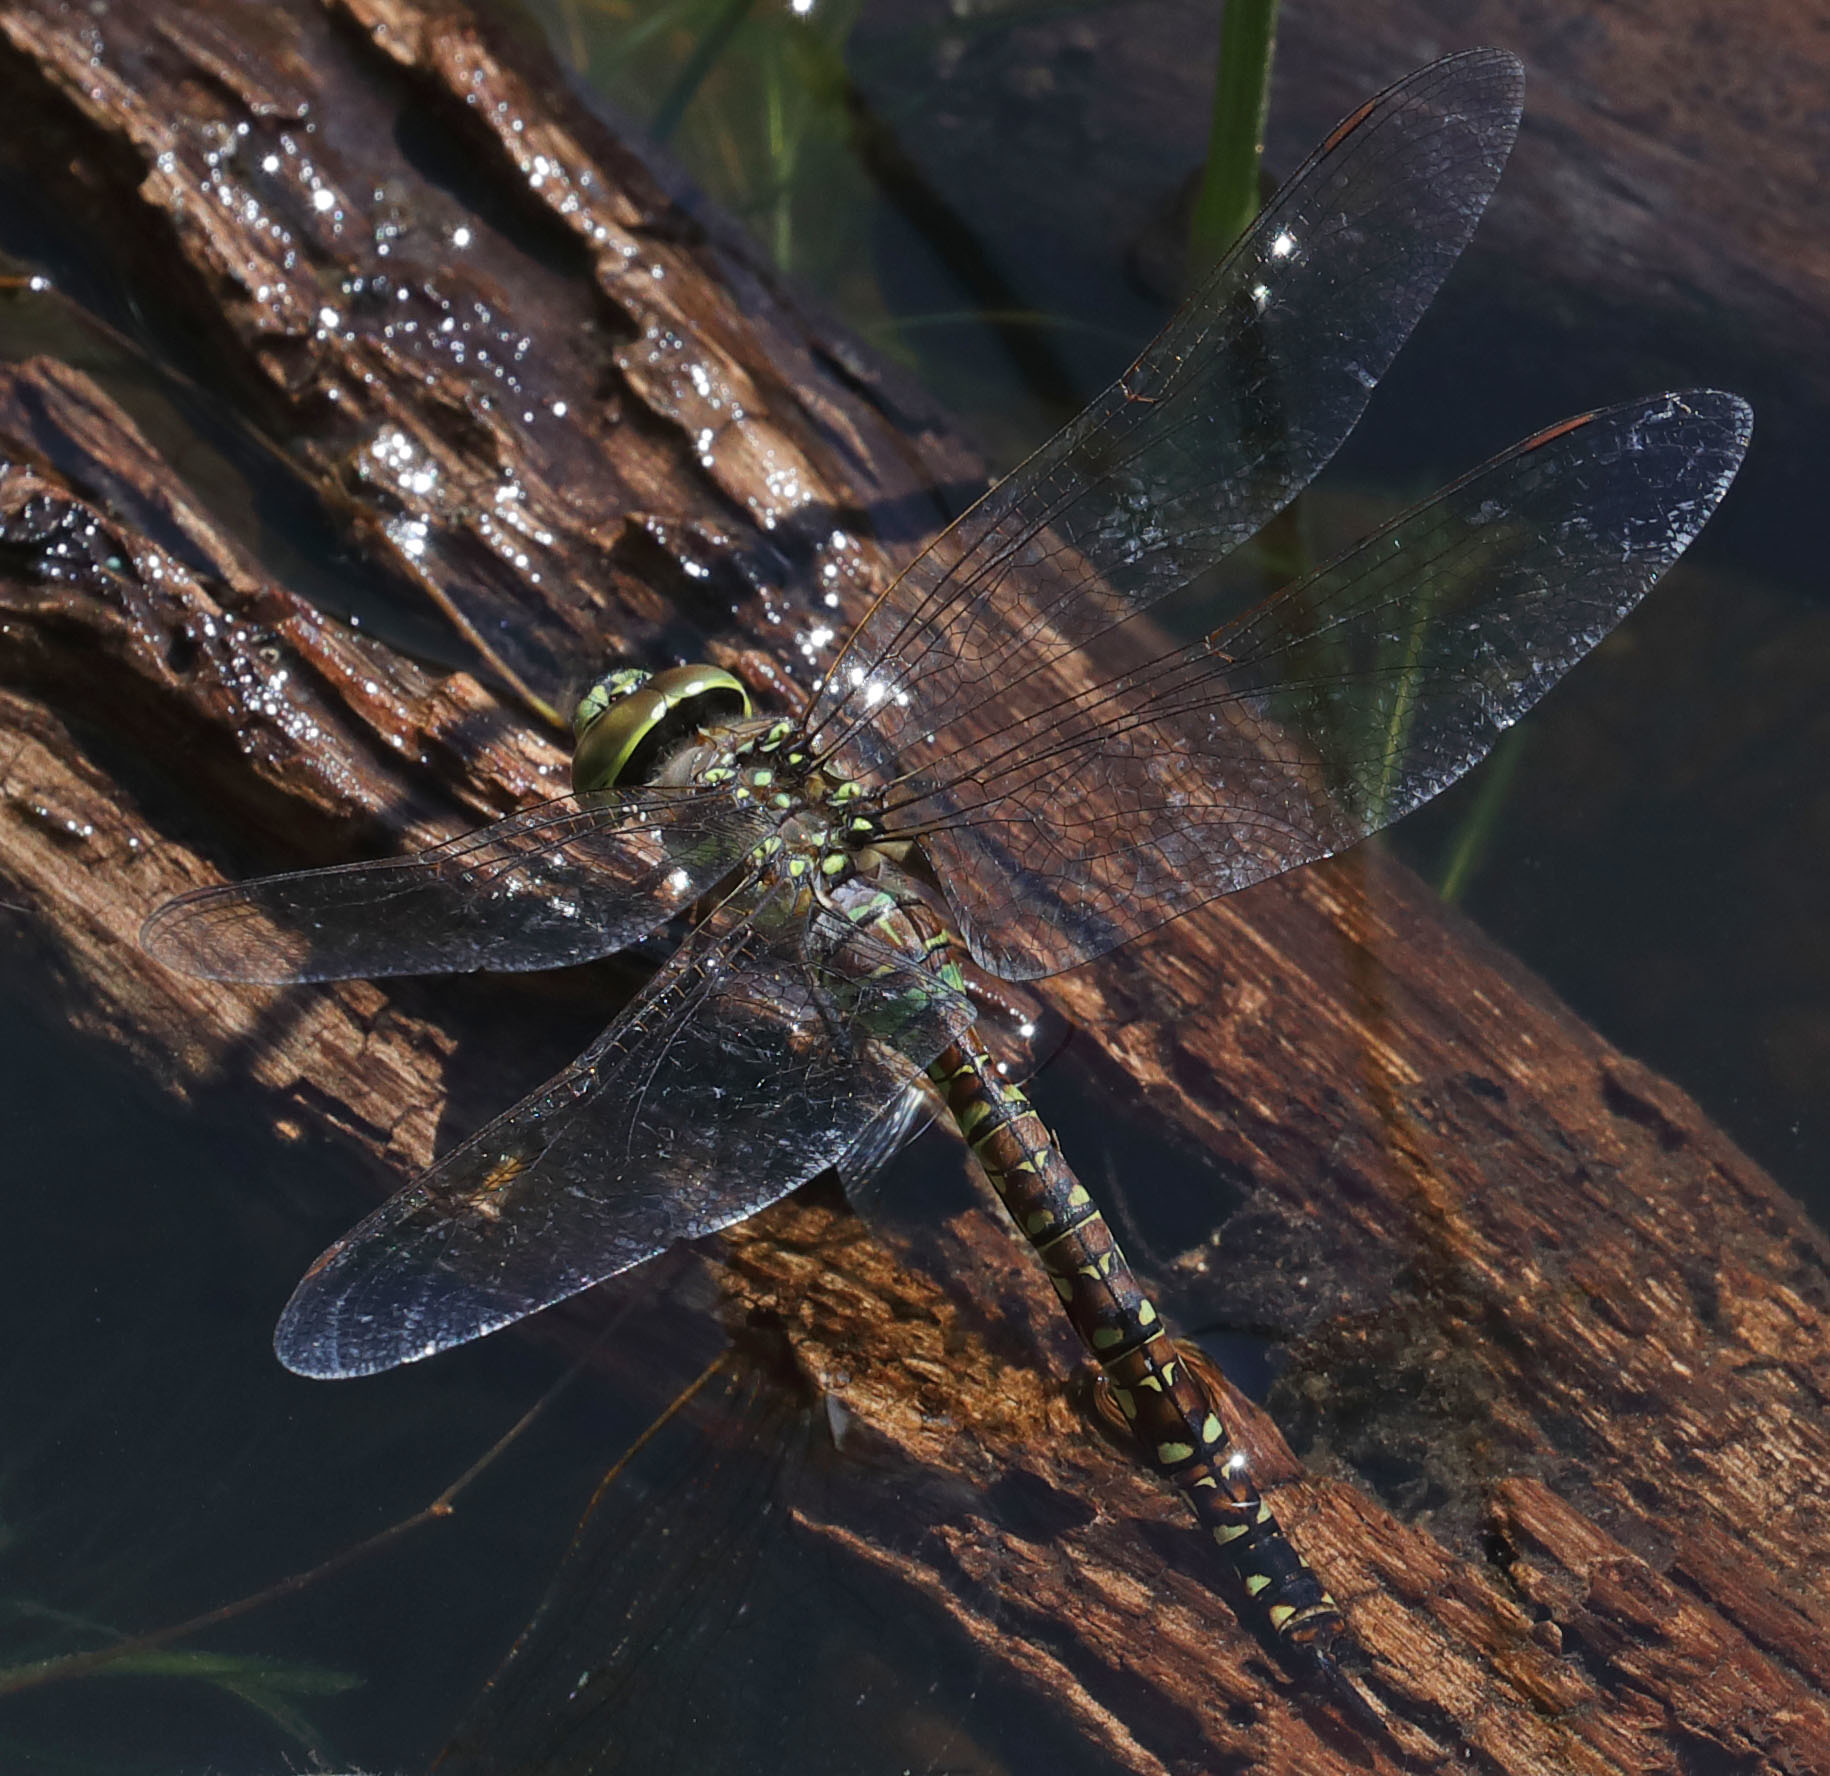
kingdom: Animalia
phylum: Arthropoda
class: Insecta
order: Odonata
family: Aeshnidae
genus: Rhionaeschna
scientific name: Rhionaeschna multicolor
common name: Blue-eyed darner
